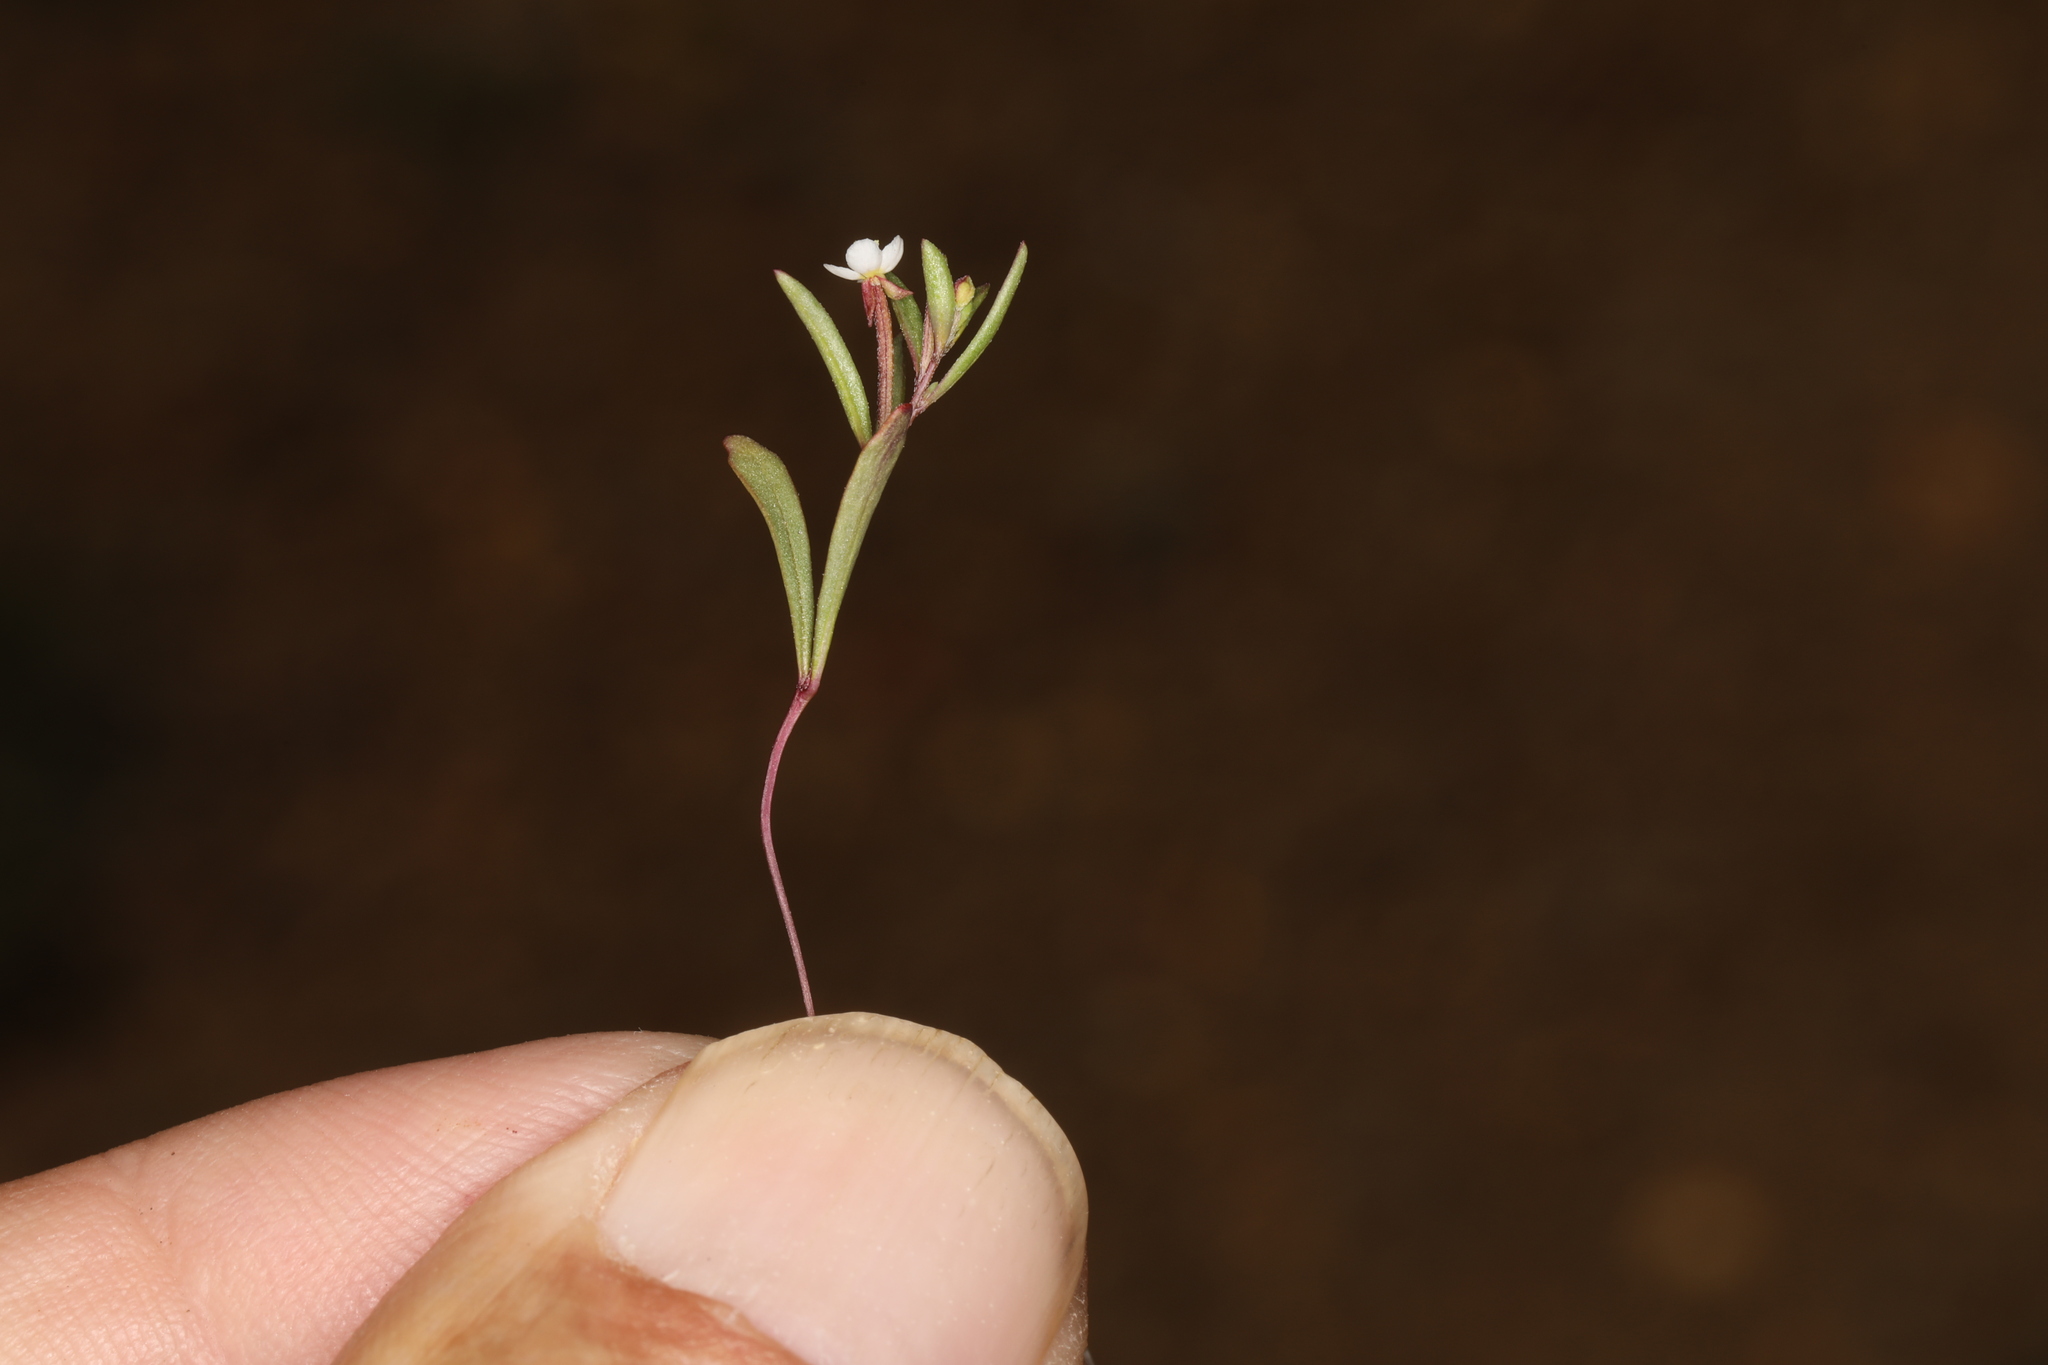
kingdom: Plantae
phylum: Tracheophyta
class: Magnoliopsida
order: Myrtales
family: Onagraceae
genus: Chylismiella
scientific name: Chylismiella pterosperma
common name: Wingfruit suncup
